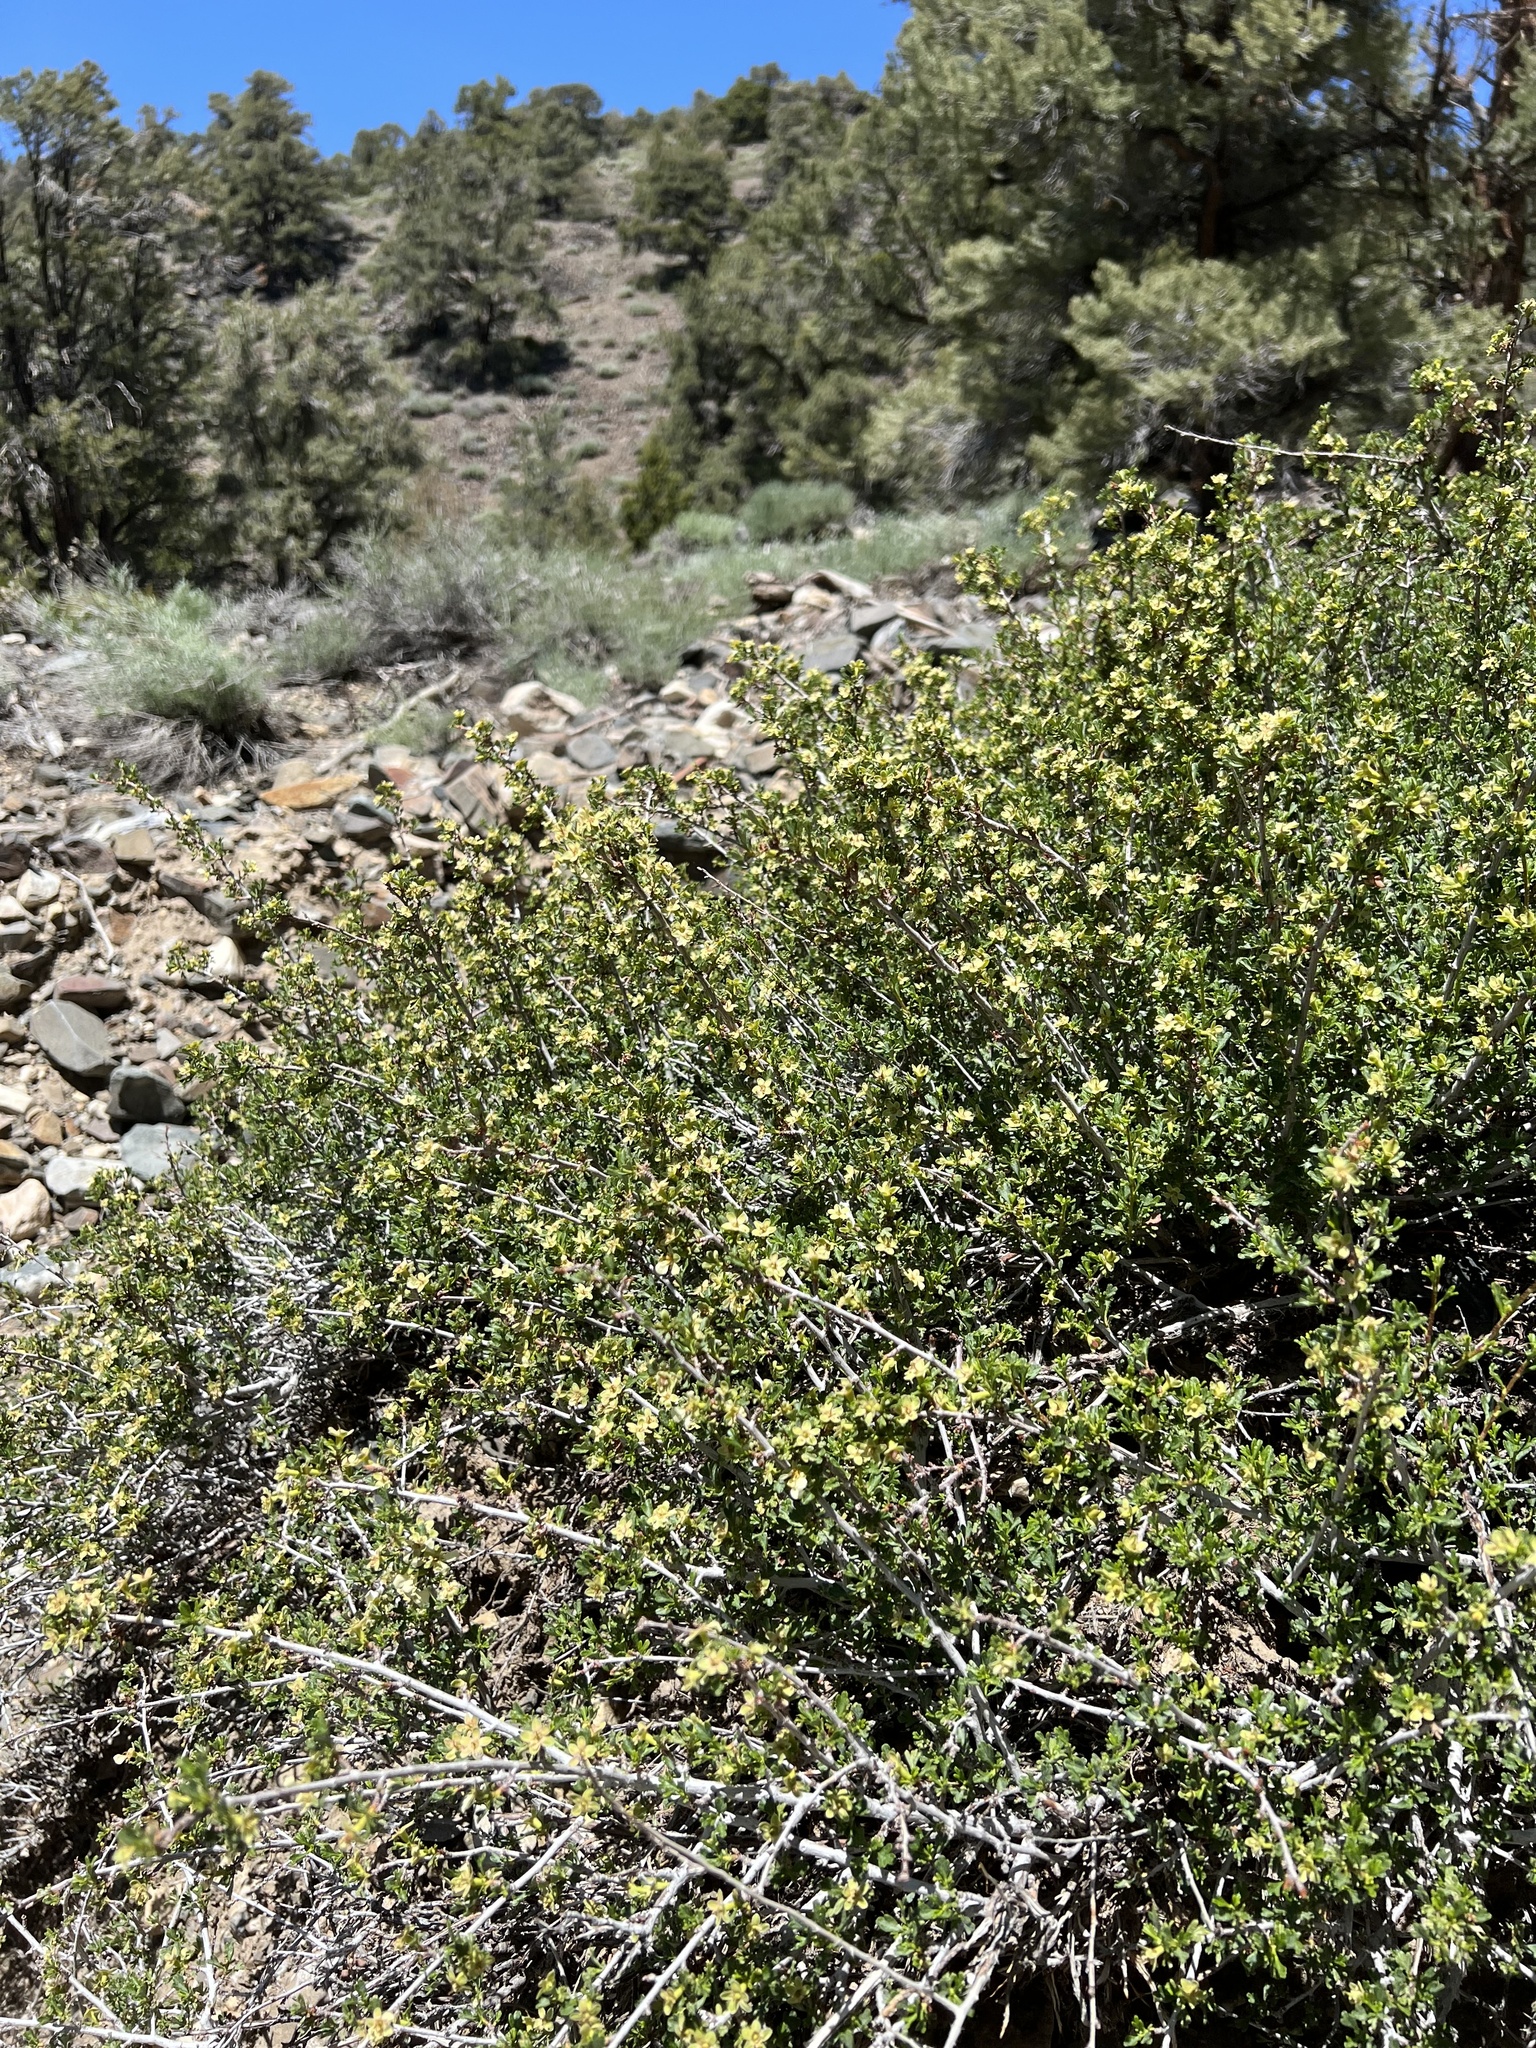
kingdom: Plantae
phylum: Tracheophyta
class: Magnoliopsida
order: Rosales
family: Rosaceae
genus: Purshia
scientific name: Purshia tridentata
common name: Antelope bitterbrush
